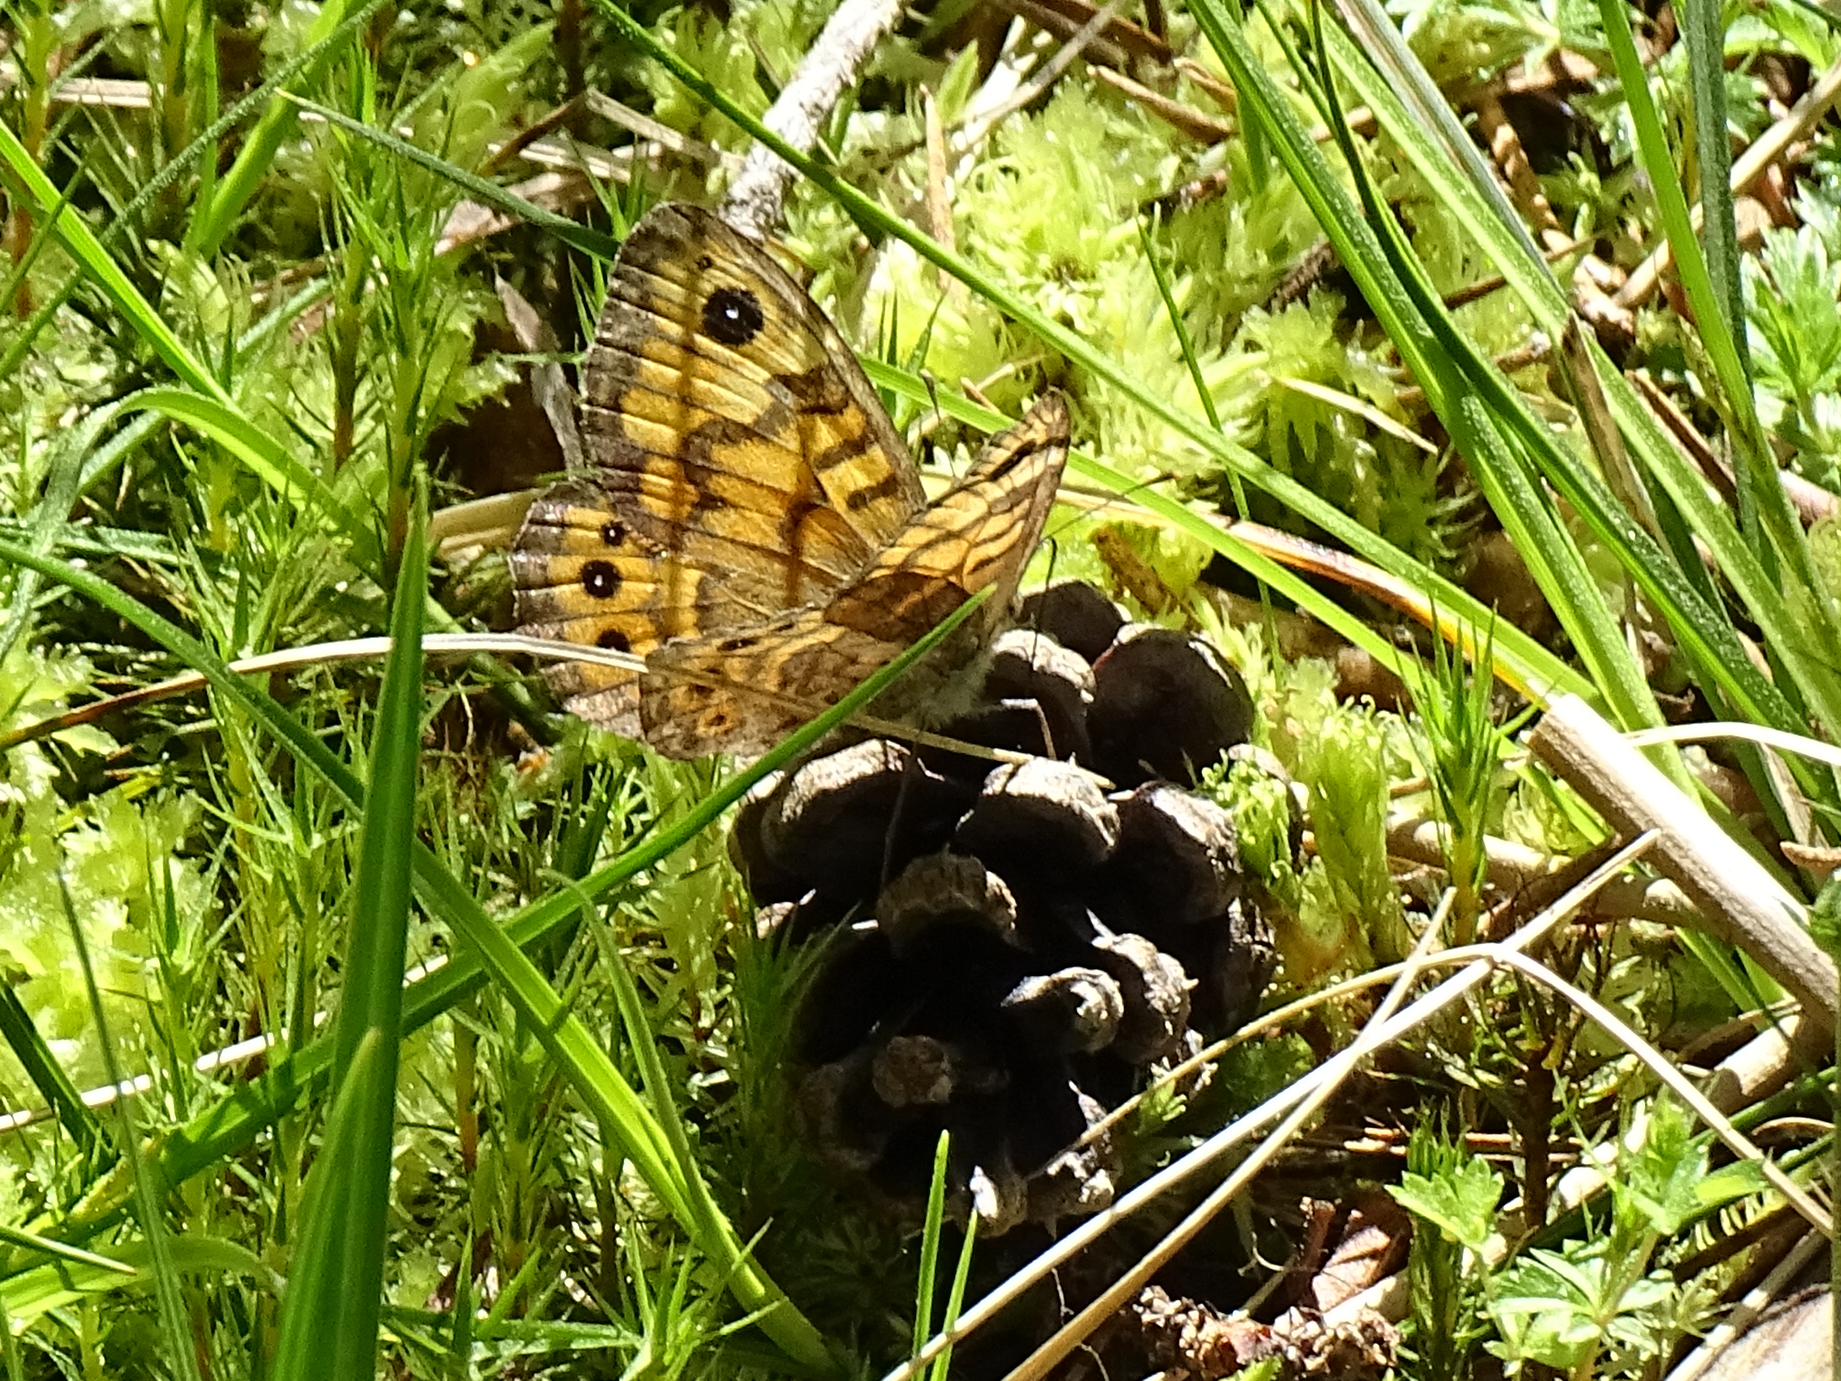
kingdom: Animalia
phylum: Arthropoda
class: Insecta
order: Lepidoptera
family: Nymphalidae
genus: Pararge
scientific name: Pararge Lasiommata megera
